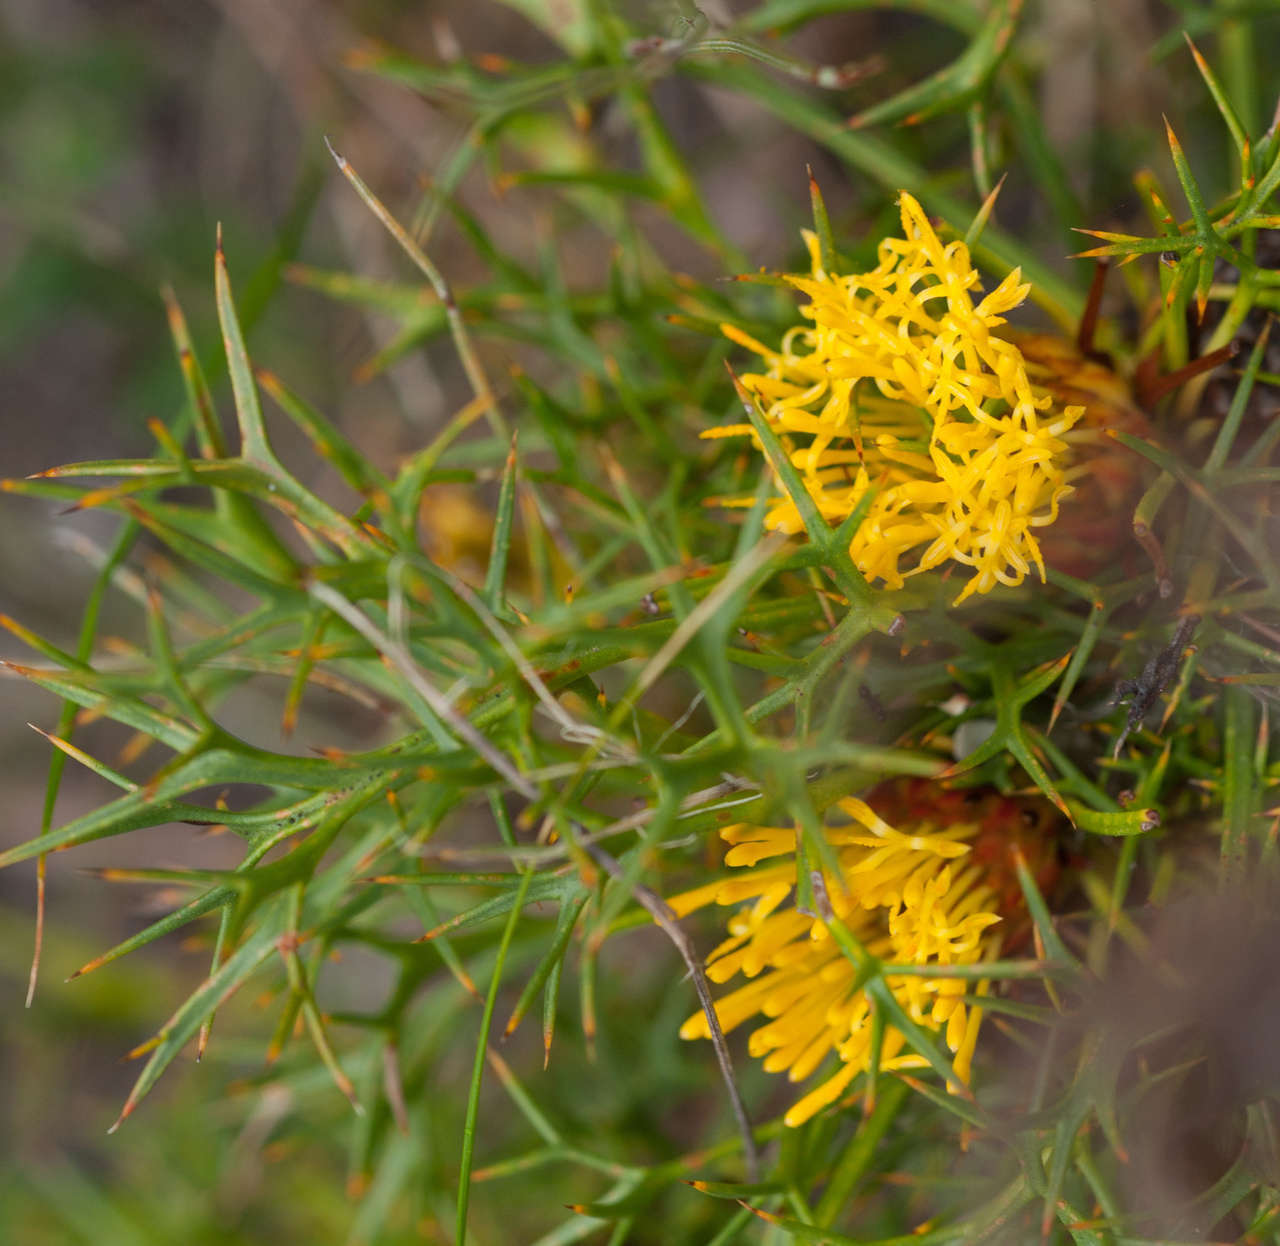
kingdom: Plantae
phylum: Tracheophyta
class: Magnoliopsida
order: Proteales
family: Proteaceae
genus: Isopogon
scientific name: Isopogon ceratophyllus
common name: Horny cone-bush
